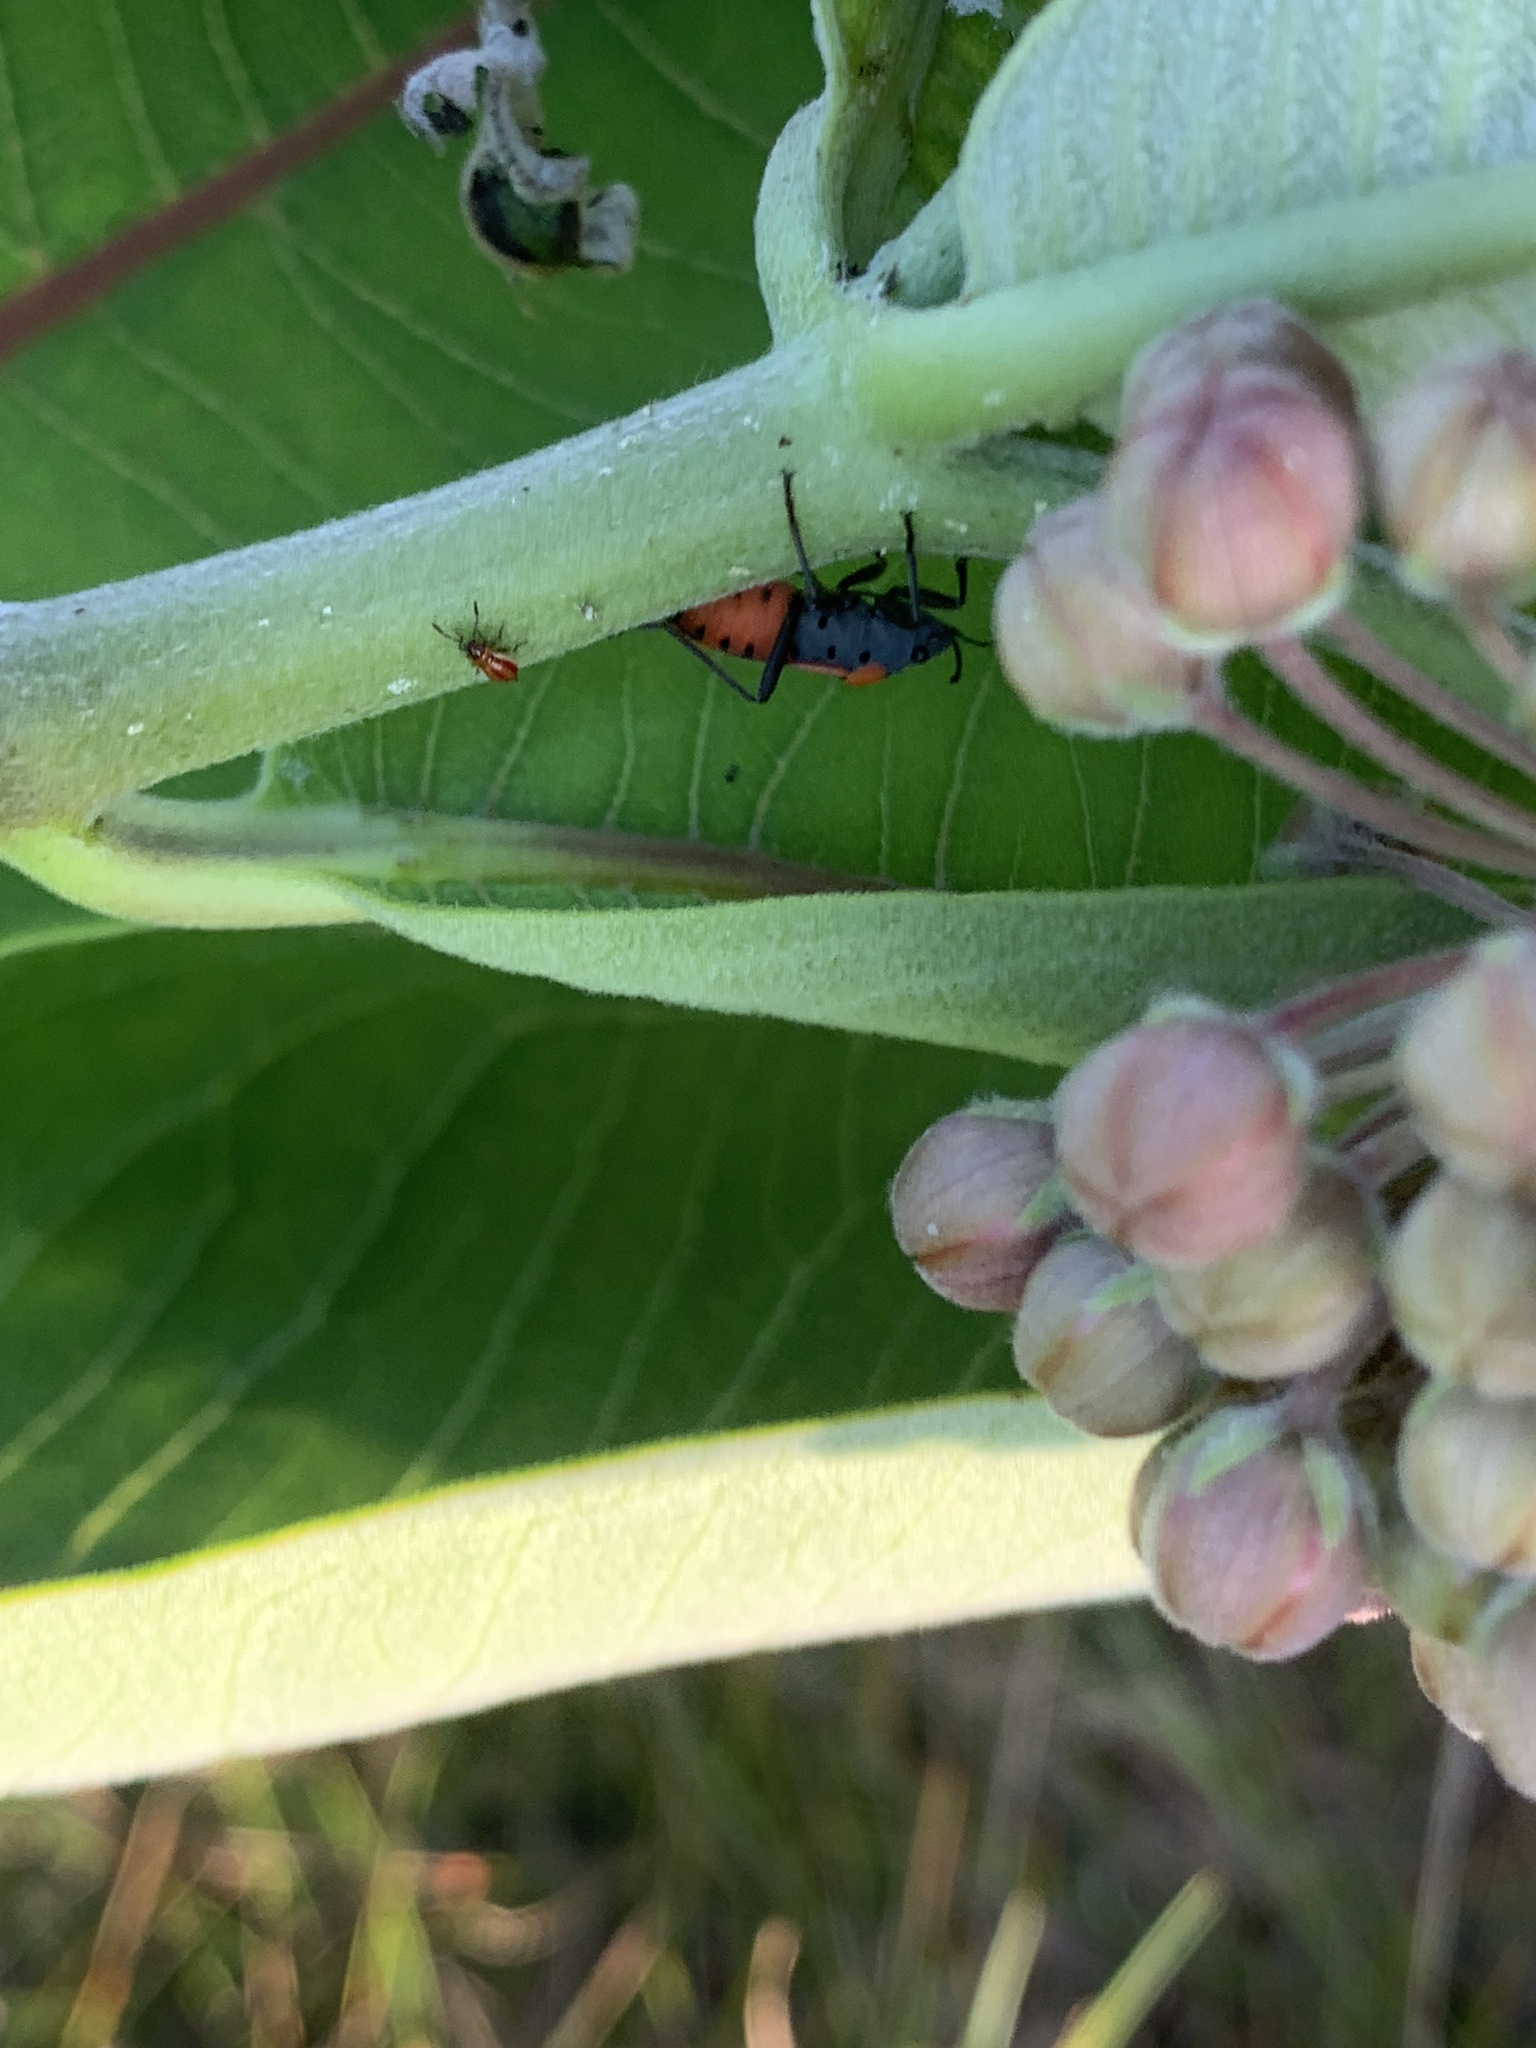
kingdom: Animalia
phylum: Arthropoda
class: Insecta
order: Hemiptera
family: Lygaeidae
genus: Lygaeus
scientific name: Lygaeus kalmii
